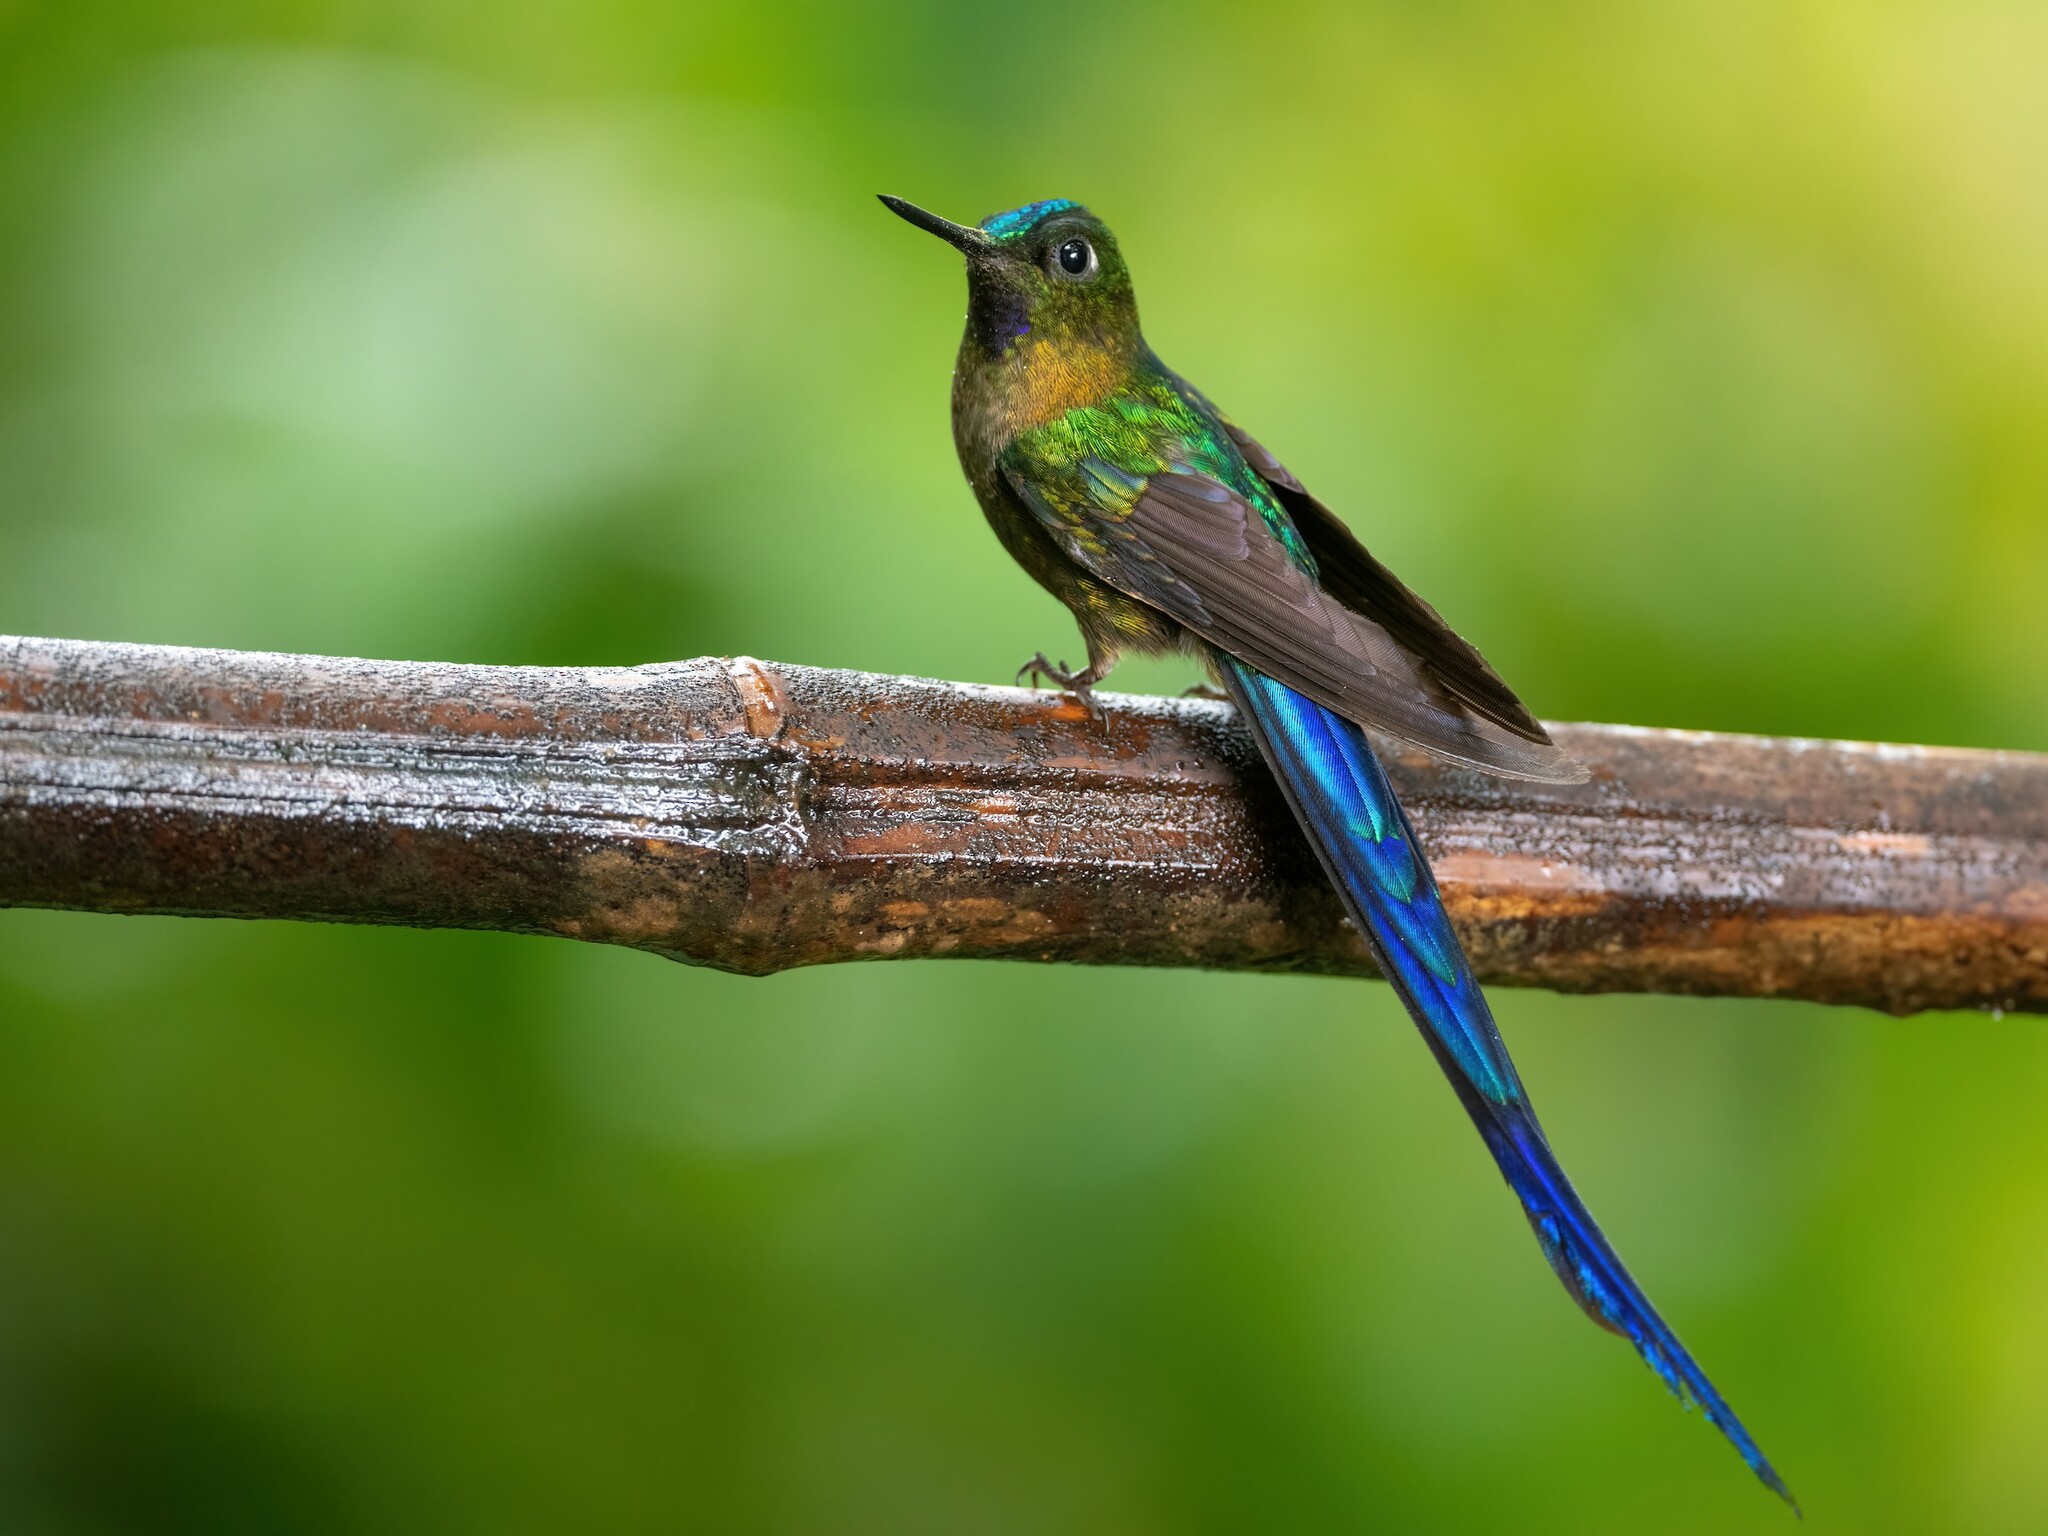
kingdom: Animalia
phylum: Chordata
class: Aves
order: Apodiformes
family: Trochilidae
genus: Aglaiocercus
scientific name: Aglaiocercus coelestis
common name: Violet-tailed sylph
